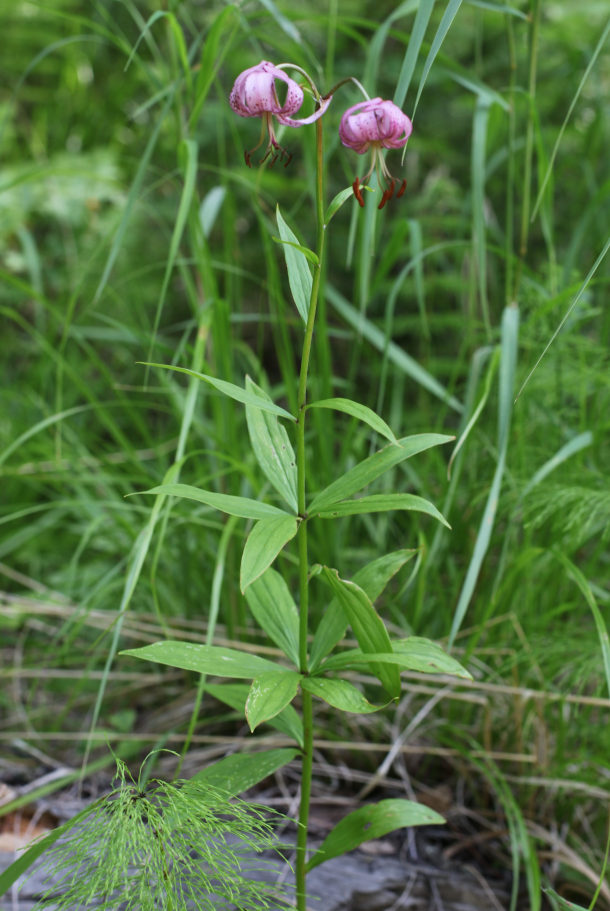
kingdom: Plantae
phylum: Tracheophyta
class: Liliopsida
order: Liliales
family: Liliaceae
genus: Lilium
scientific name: Lilium martagon
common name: Martagon lily
